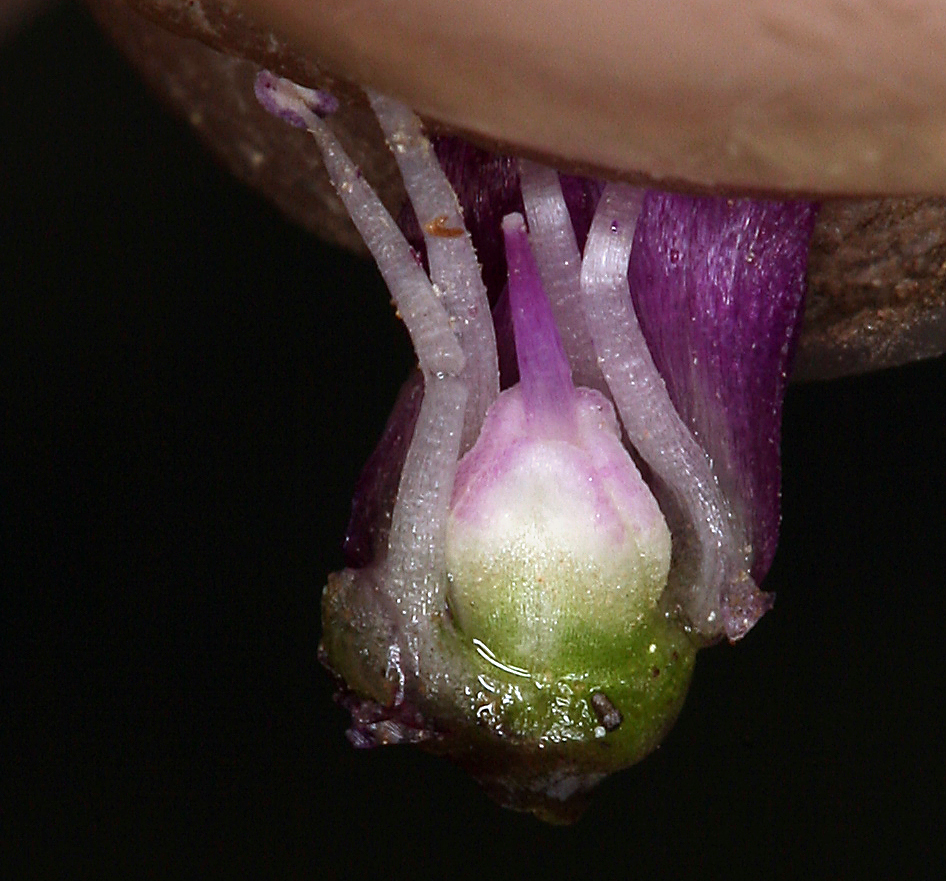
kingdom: Plantae
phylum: Tracheophyta
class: Liliopsida
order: Asparagales
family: Amaryllidaceae
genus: Allium
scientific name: Allium falcifolium
